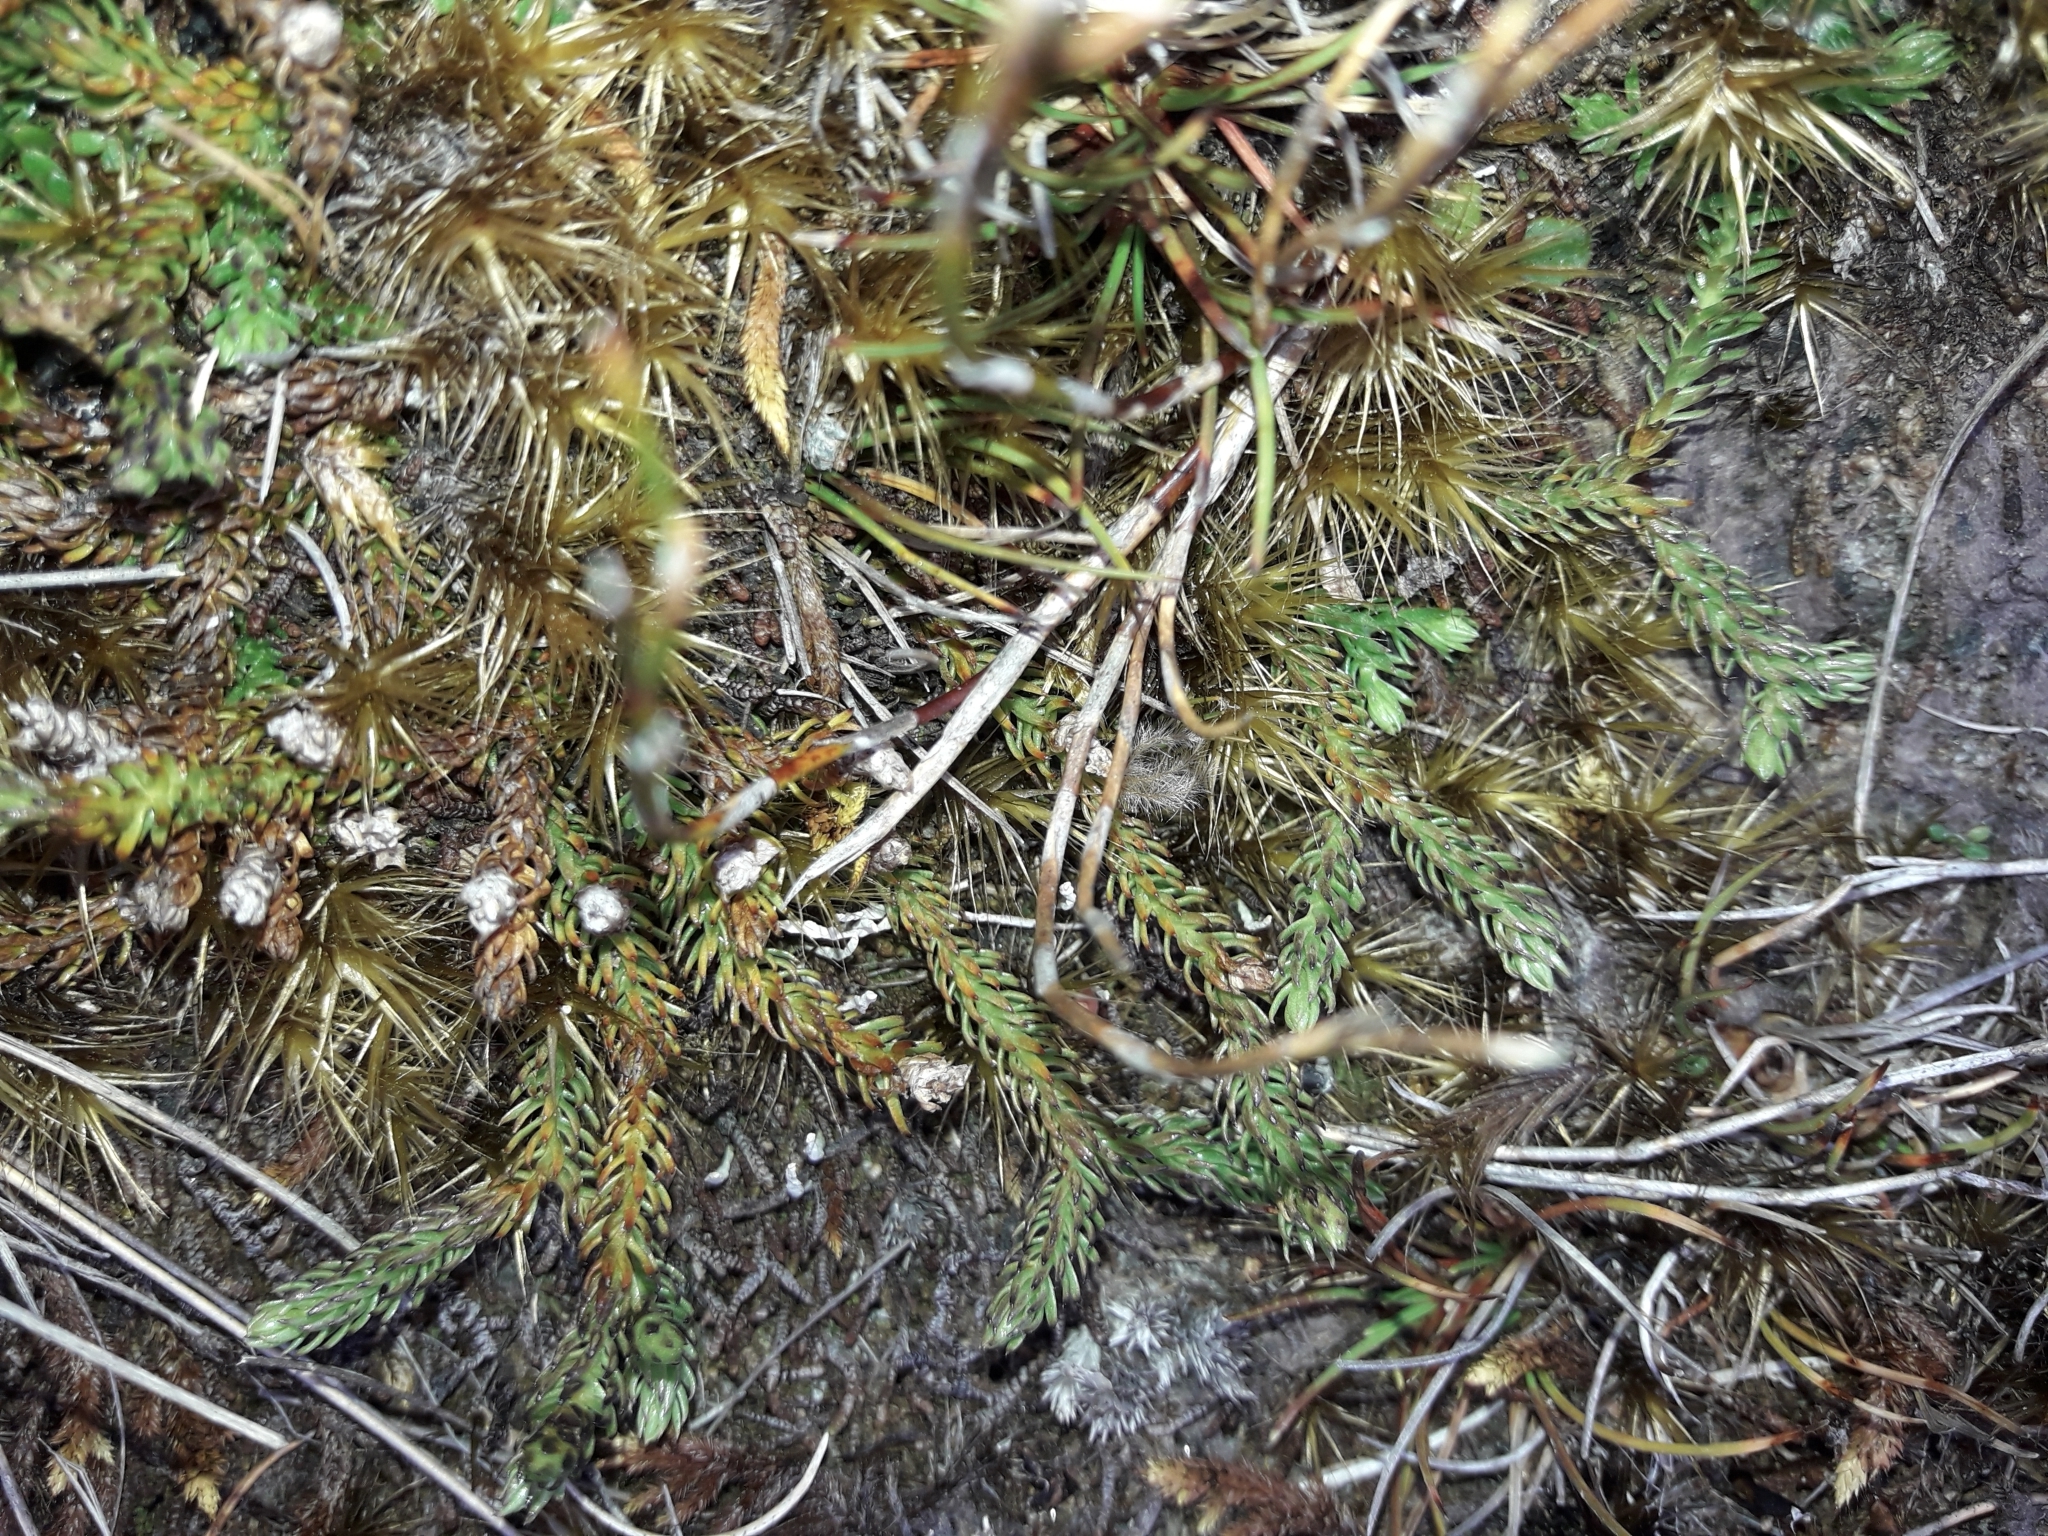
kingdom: Plantae
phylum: Tracheophyta
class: Lycopodiopsida
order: Lycopodiales
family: Lycopodiaceae
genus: Lateristachys
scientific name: Lateristachys diffusa
